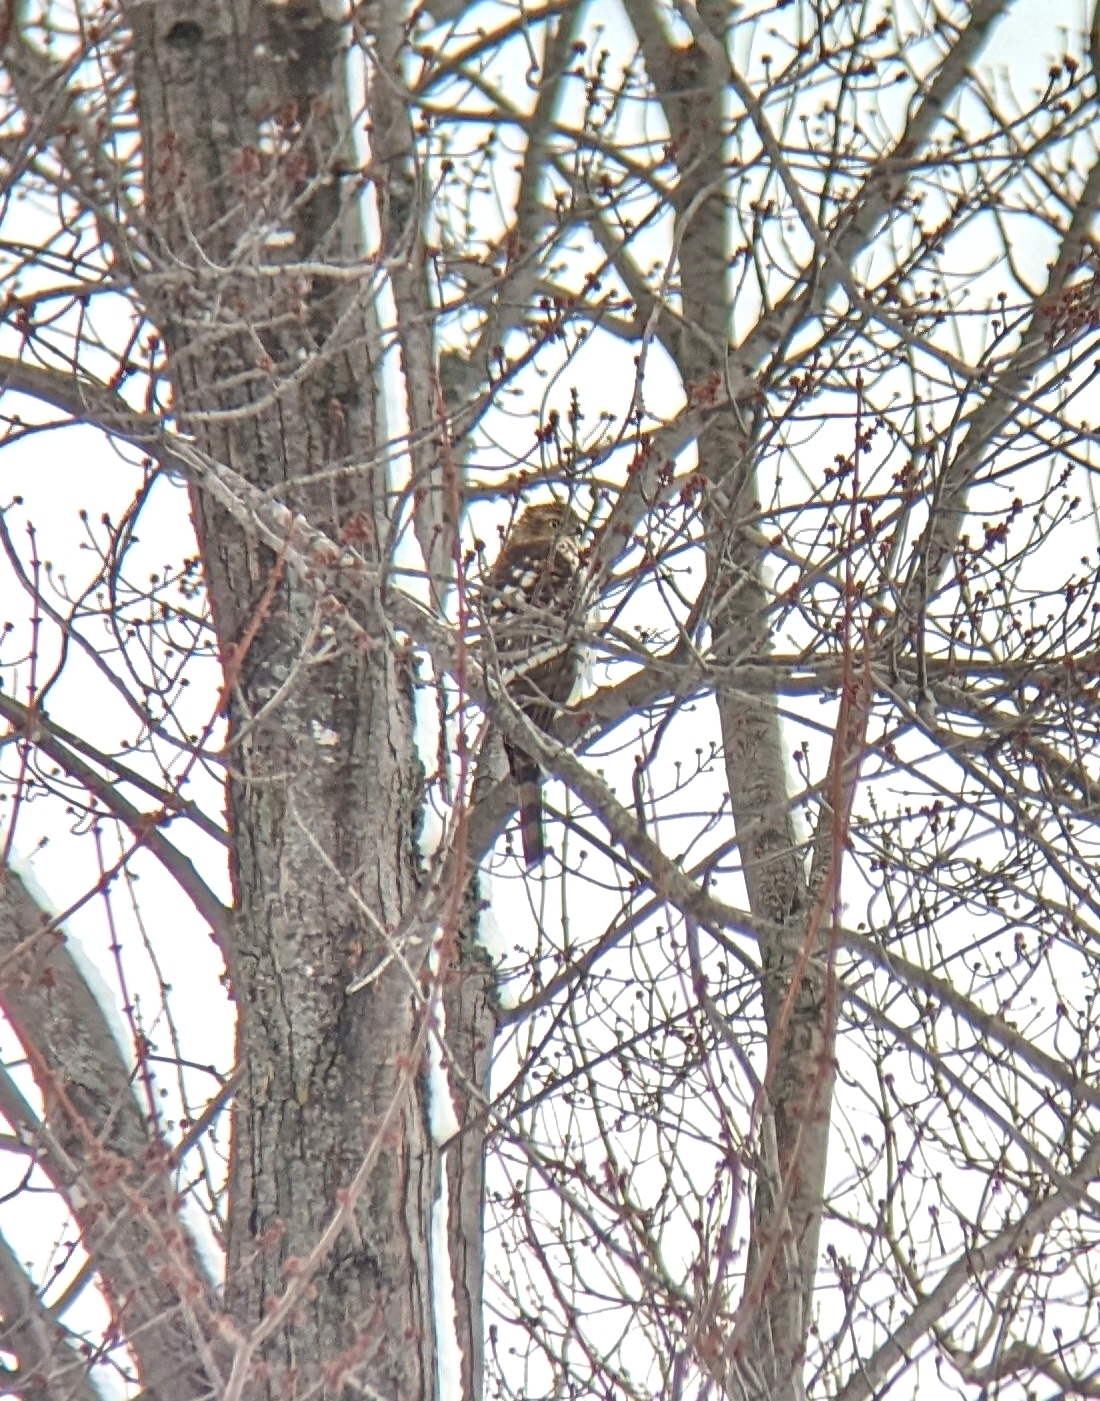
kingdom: Animalia
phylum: Chordata
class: Aves
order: Accipitriformes
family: Accipitridae
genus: Accipiter
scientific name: Accipiter cooperii
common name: Cooper's hawk
